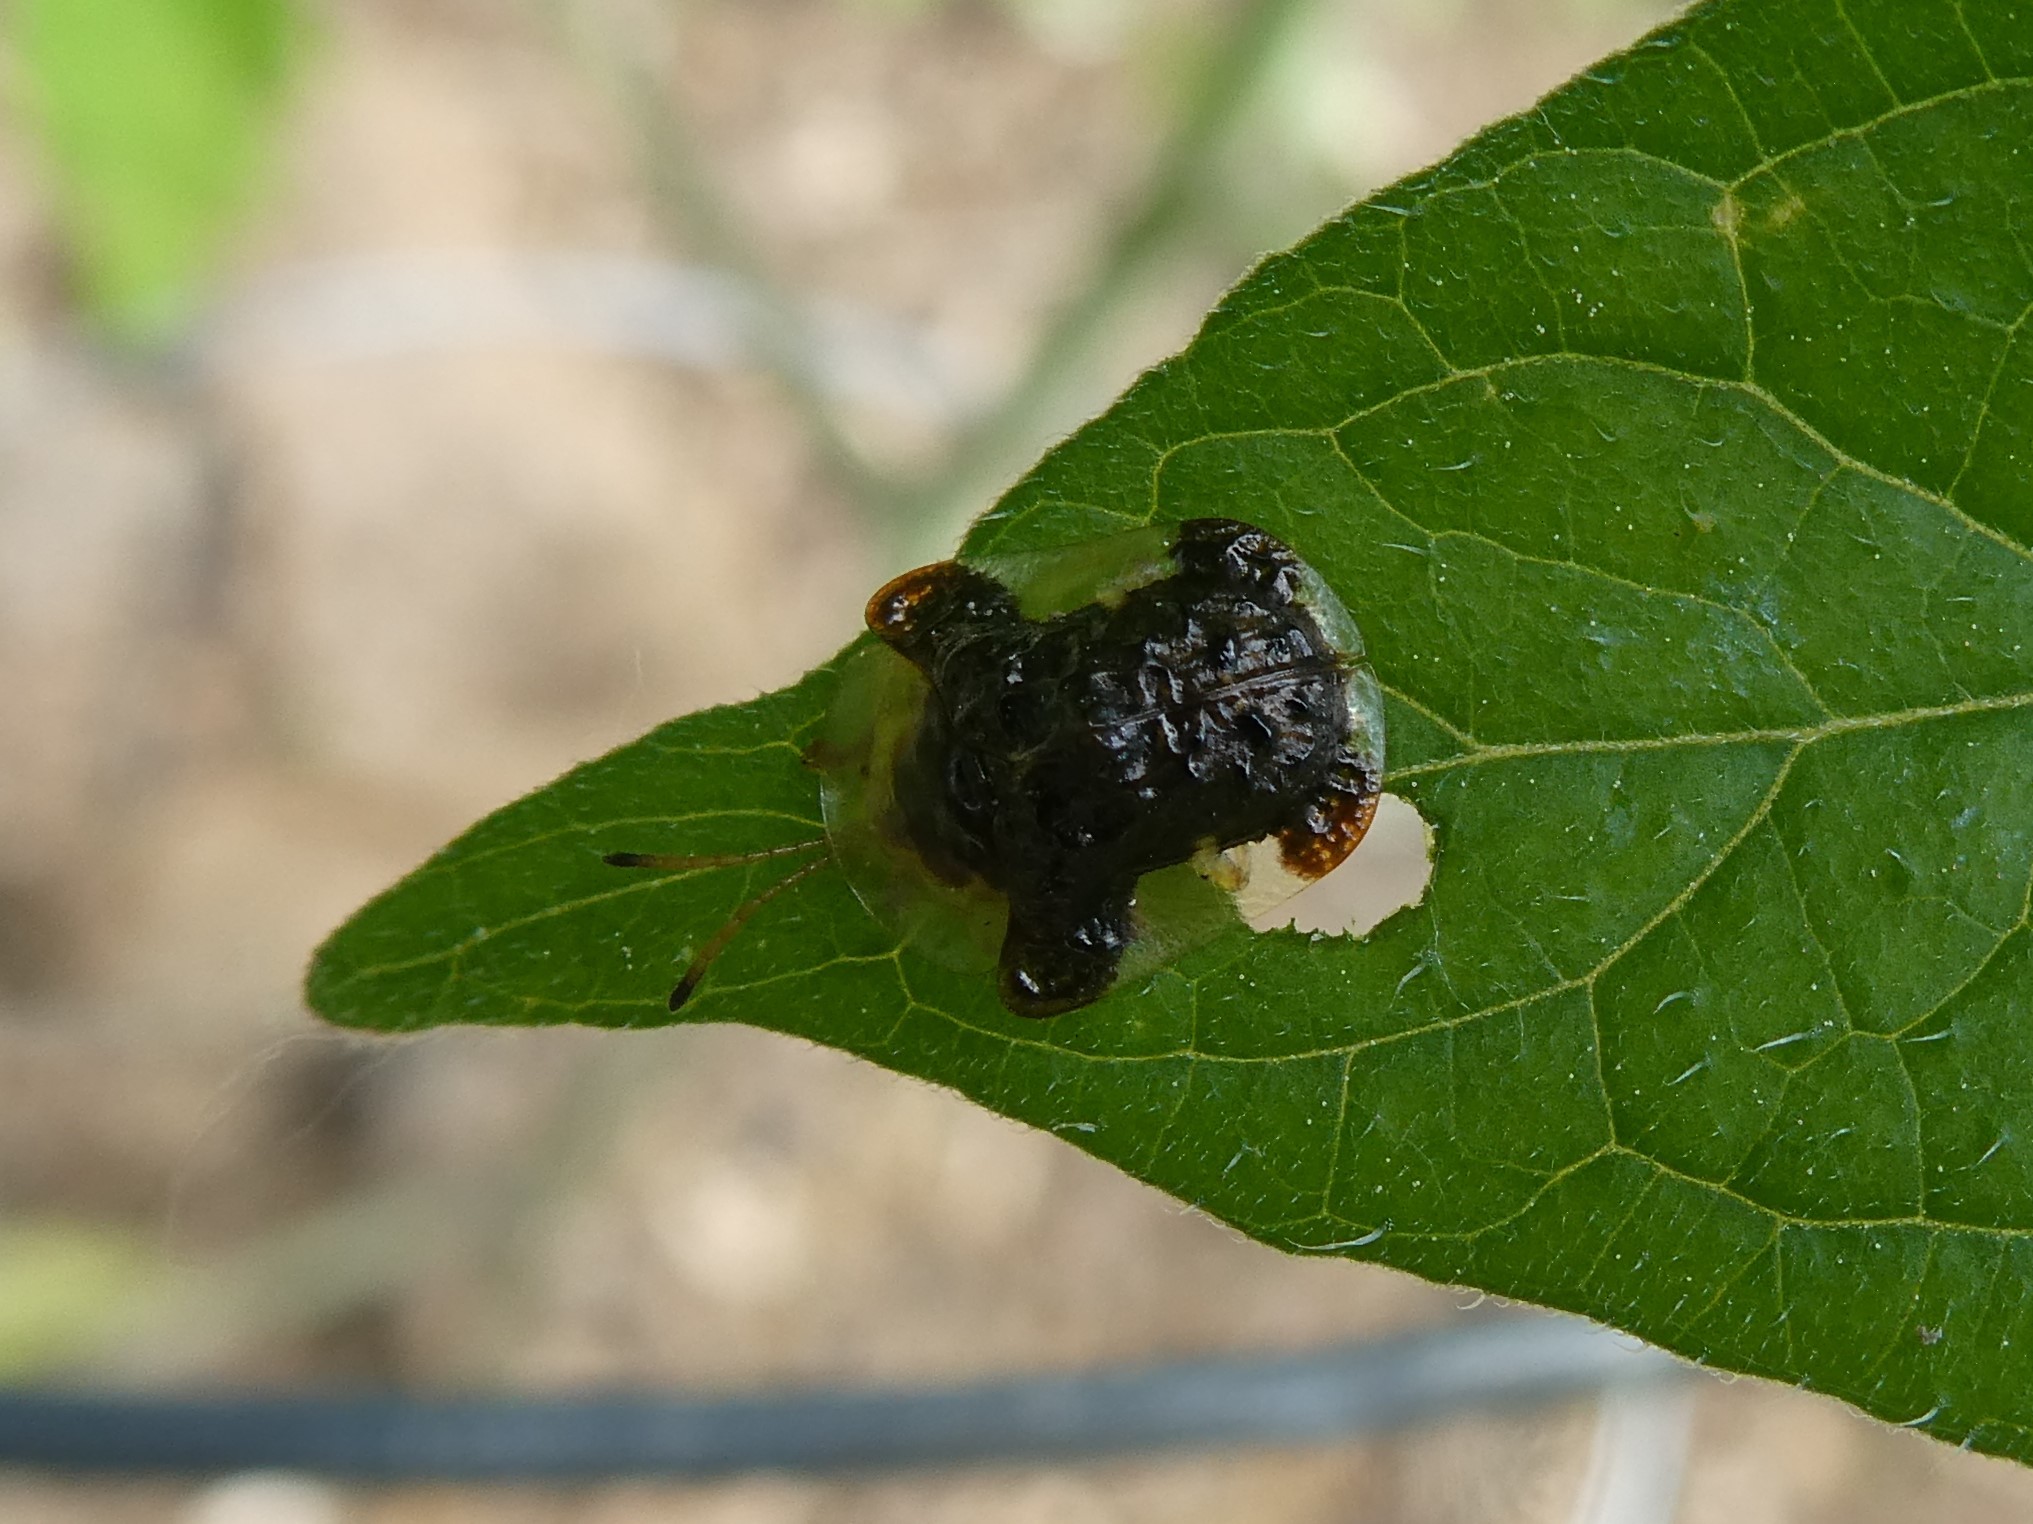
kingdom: Animalia
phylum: Arthropoda
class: Insecta
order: Coleoptera
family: Chrysomelidae
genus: Helocassis
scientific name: Helocassis clavata
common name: Clavate tortoise beetle
